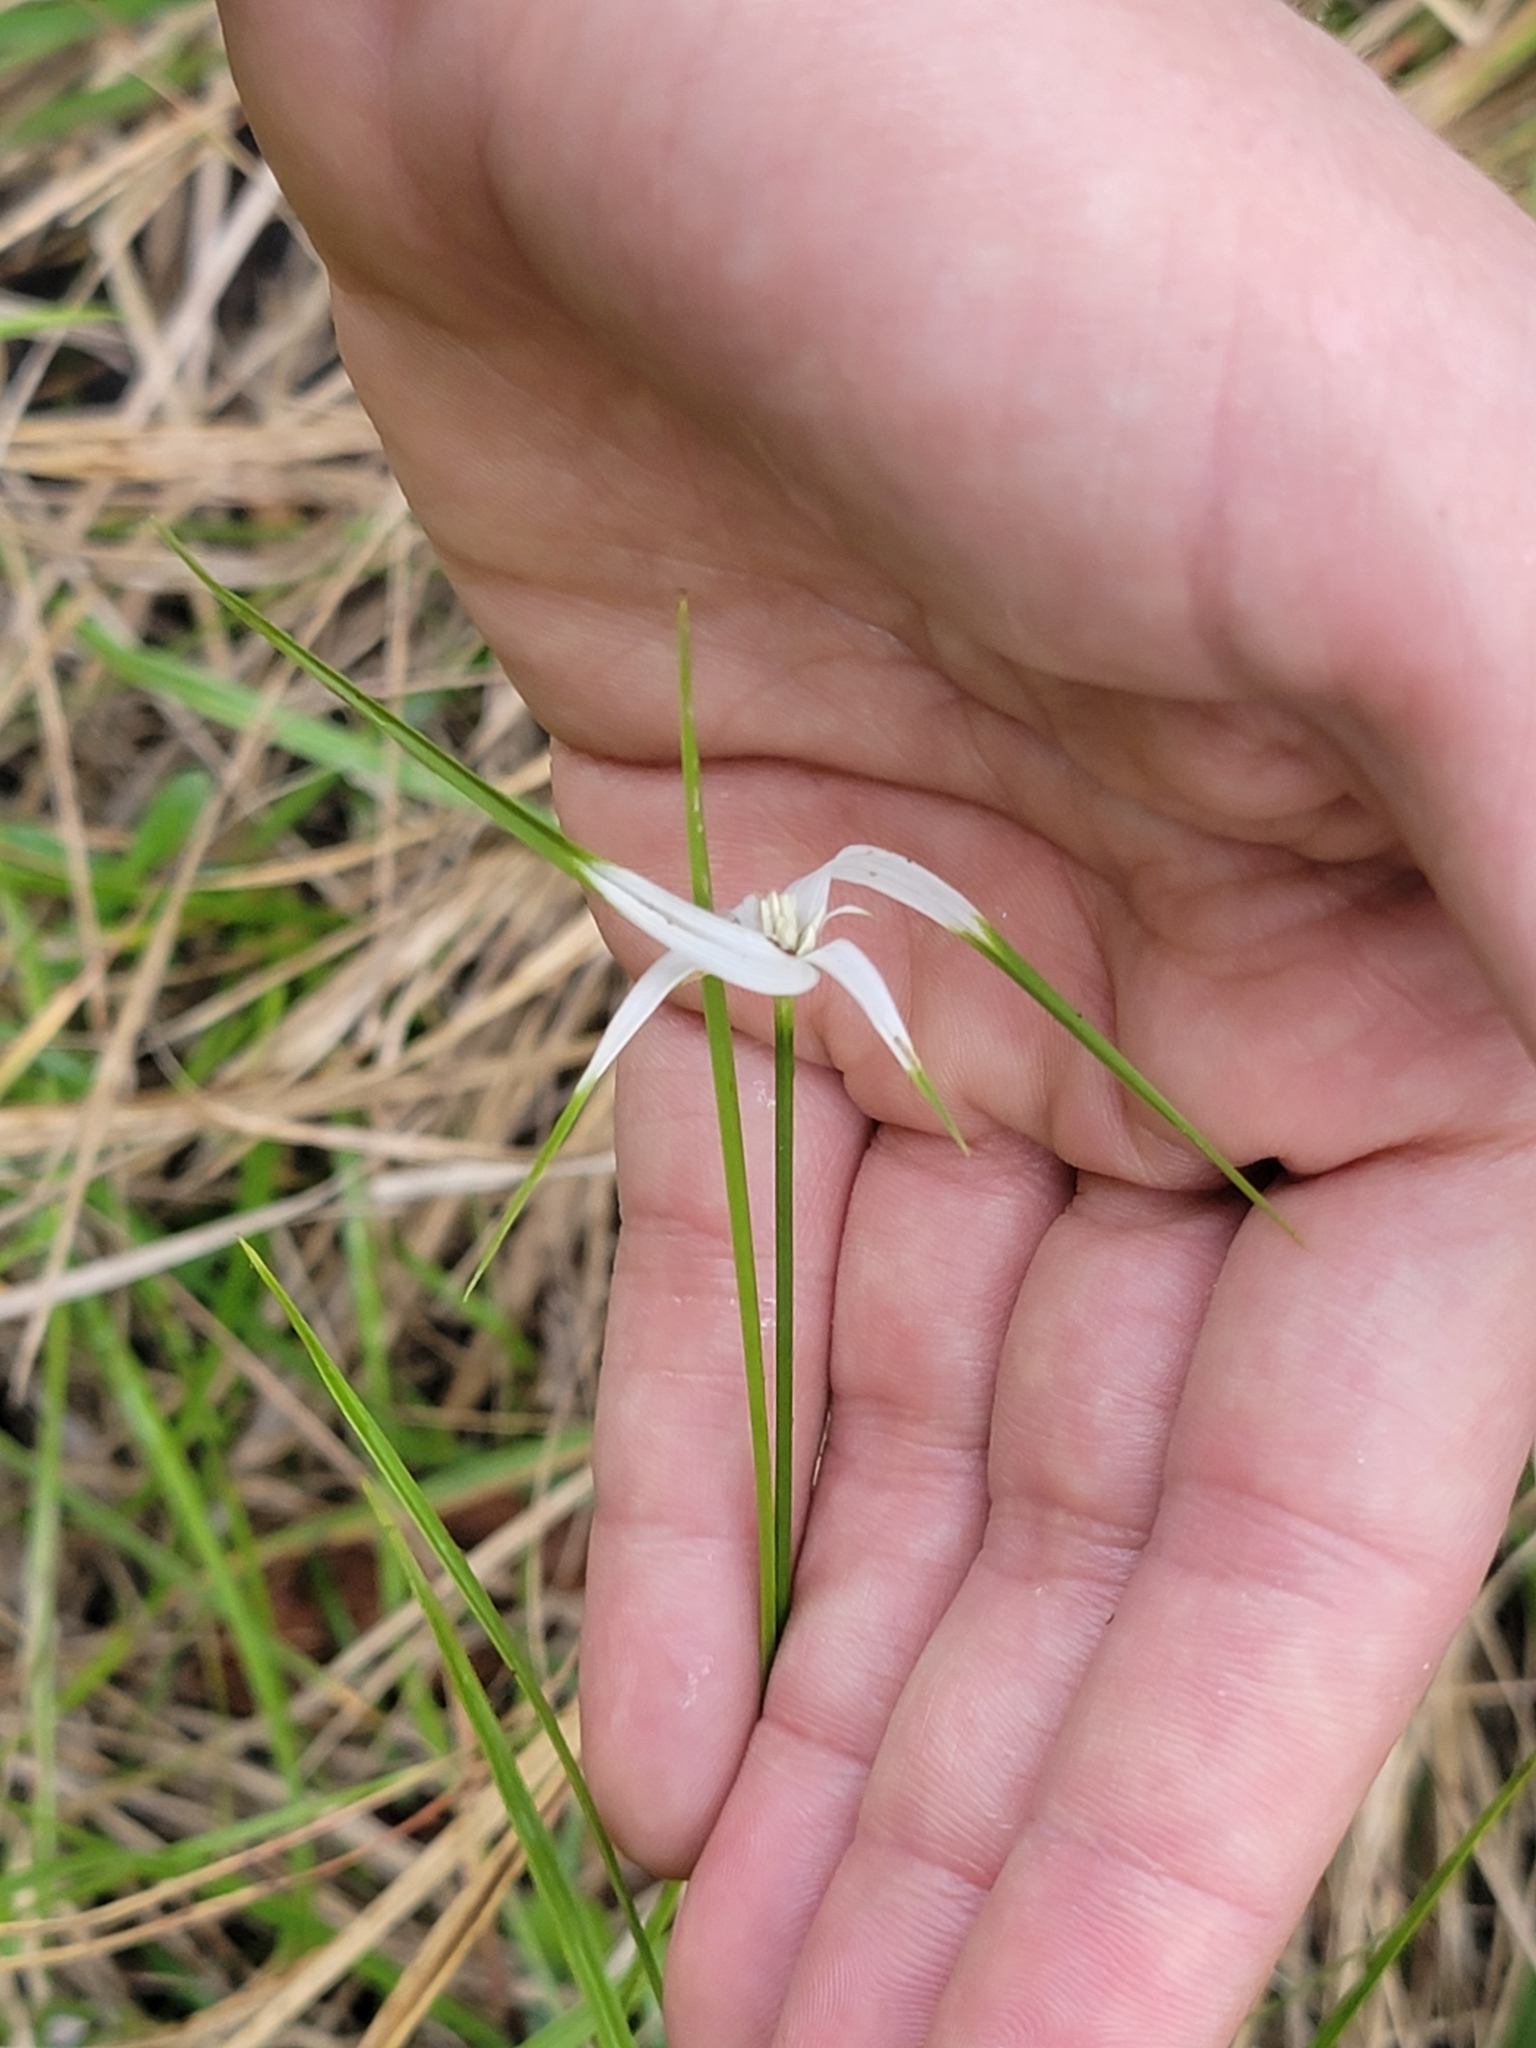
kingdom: Plantae
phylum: Tracheophyta
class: Liliopsida
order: Poales
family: Cyperaceae
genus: Rhynchospora
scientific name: Rhynchospora colorata
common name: Star sedge
